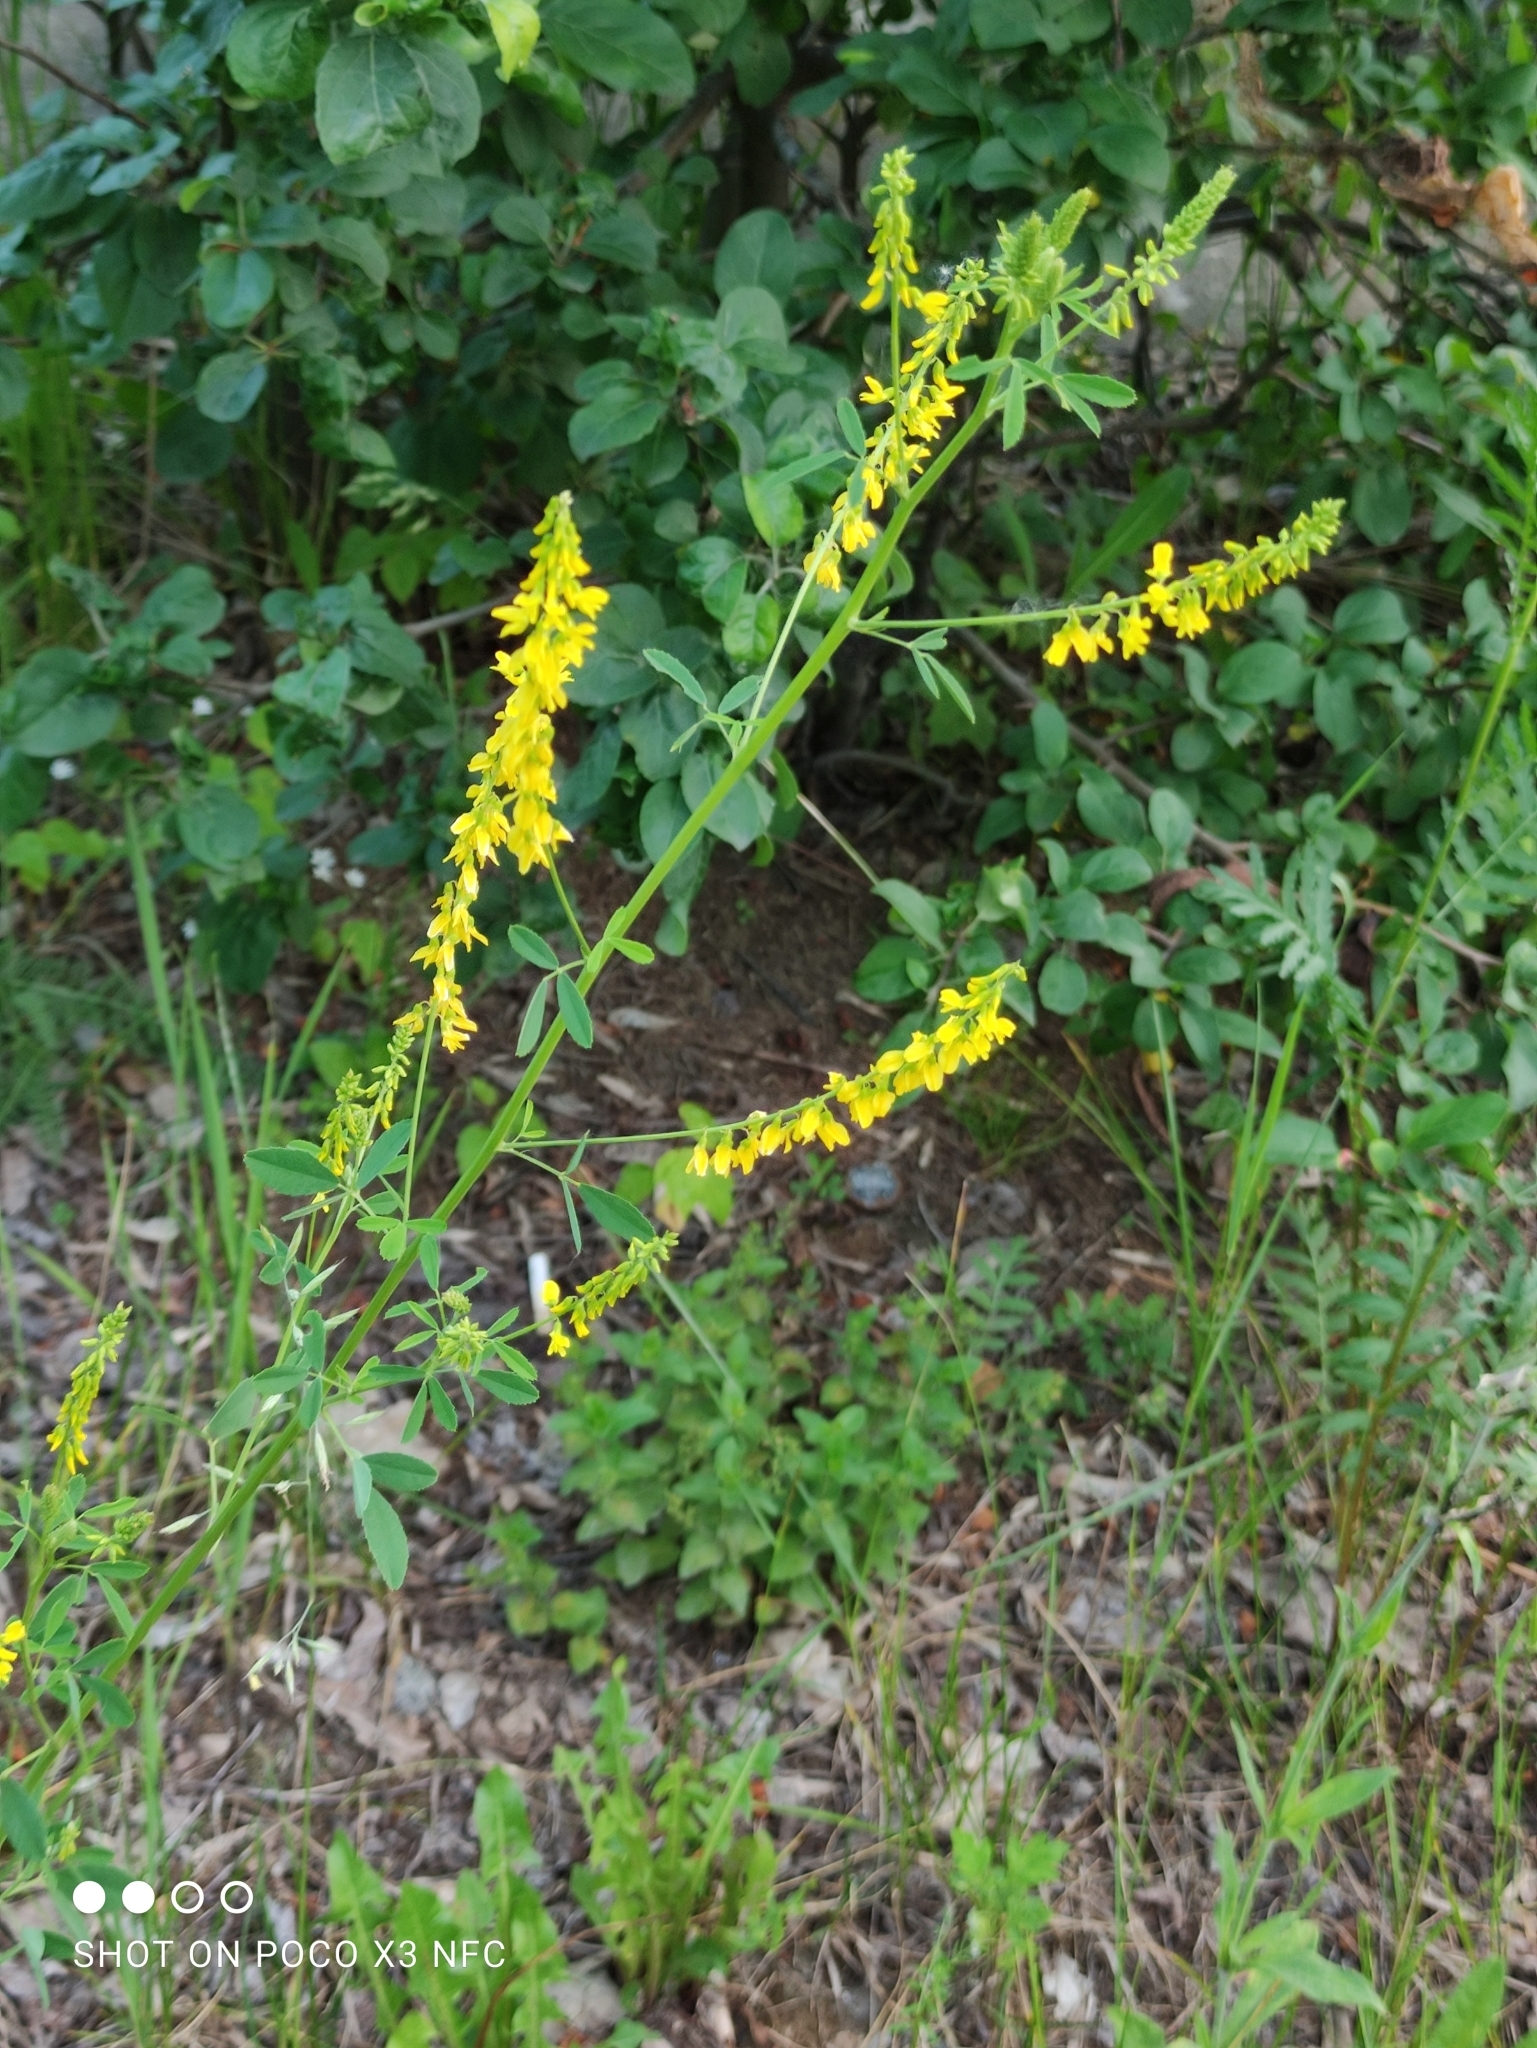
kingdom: Plantae
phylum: Tracheophyta
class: Magnoliopsida
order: Fabales
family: Fabaceae
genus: Melilotus
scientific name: Melilotus officinalis
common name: Sweetclover
